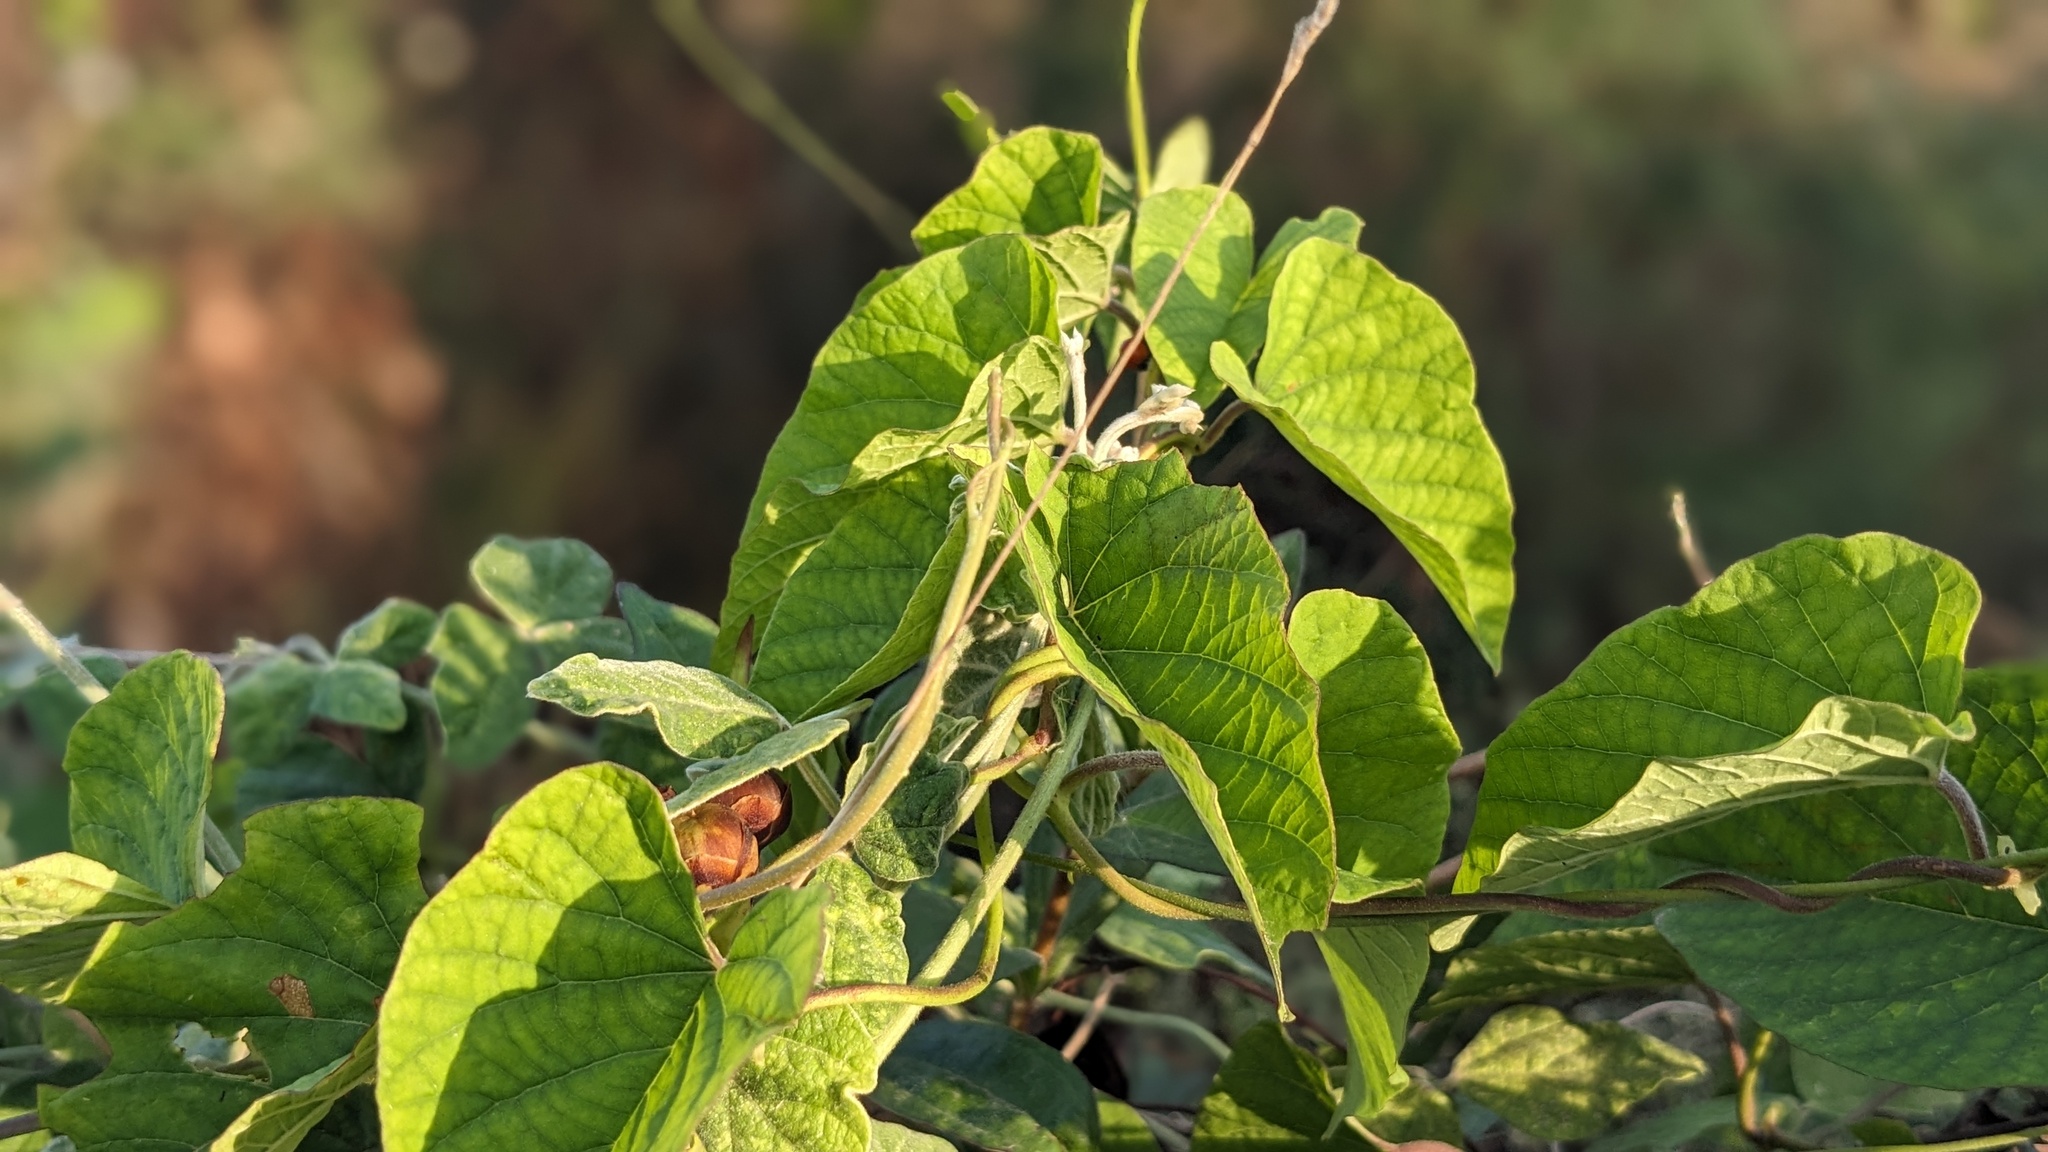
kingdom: Animalia
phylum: Arthropoda
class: Insecta
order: Coleoptera
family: Coccinellidae
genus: Cycloneda
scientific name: Cycloneda sanguinea
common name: Ladybird beetle
